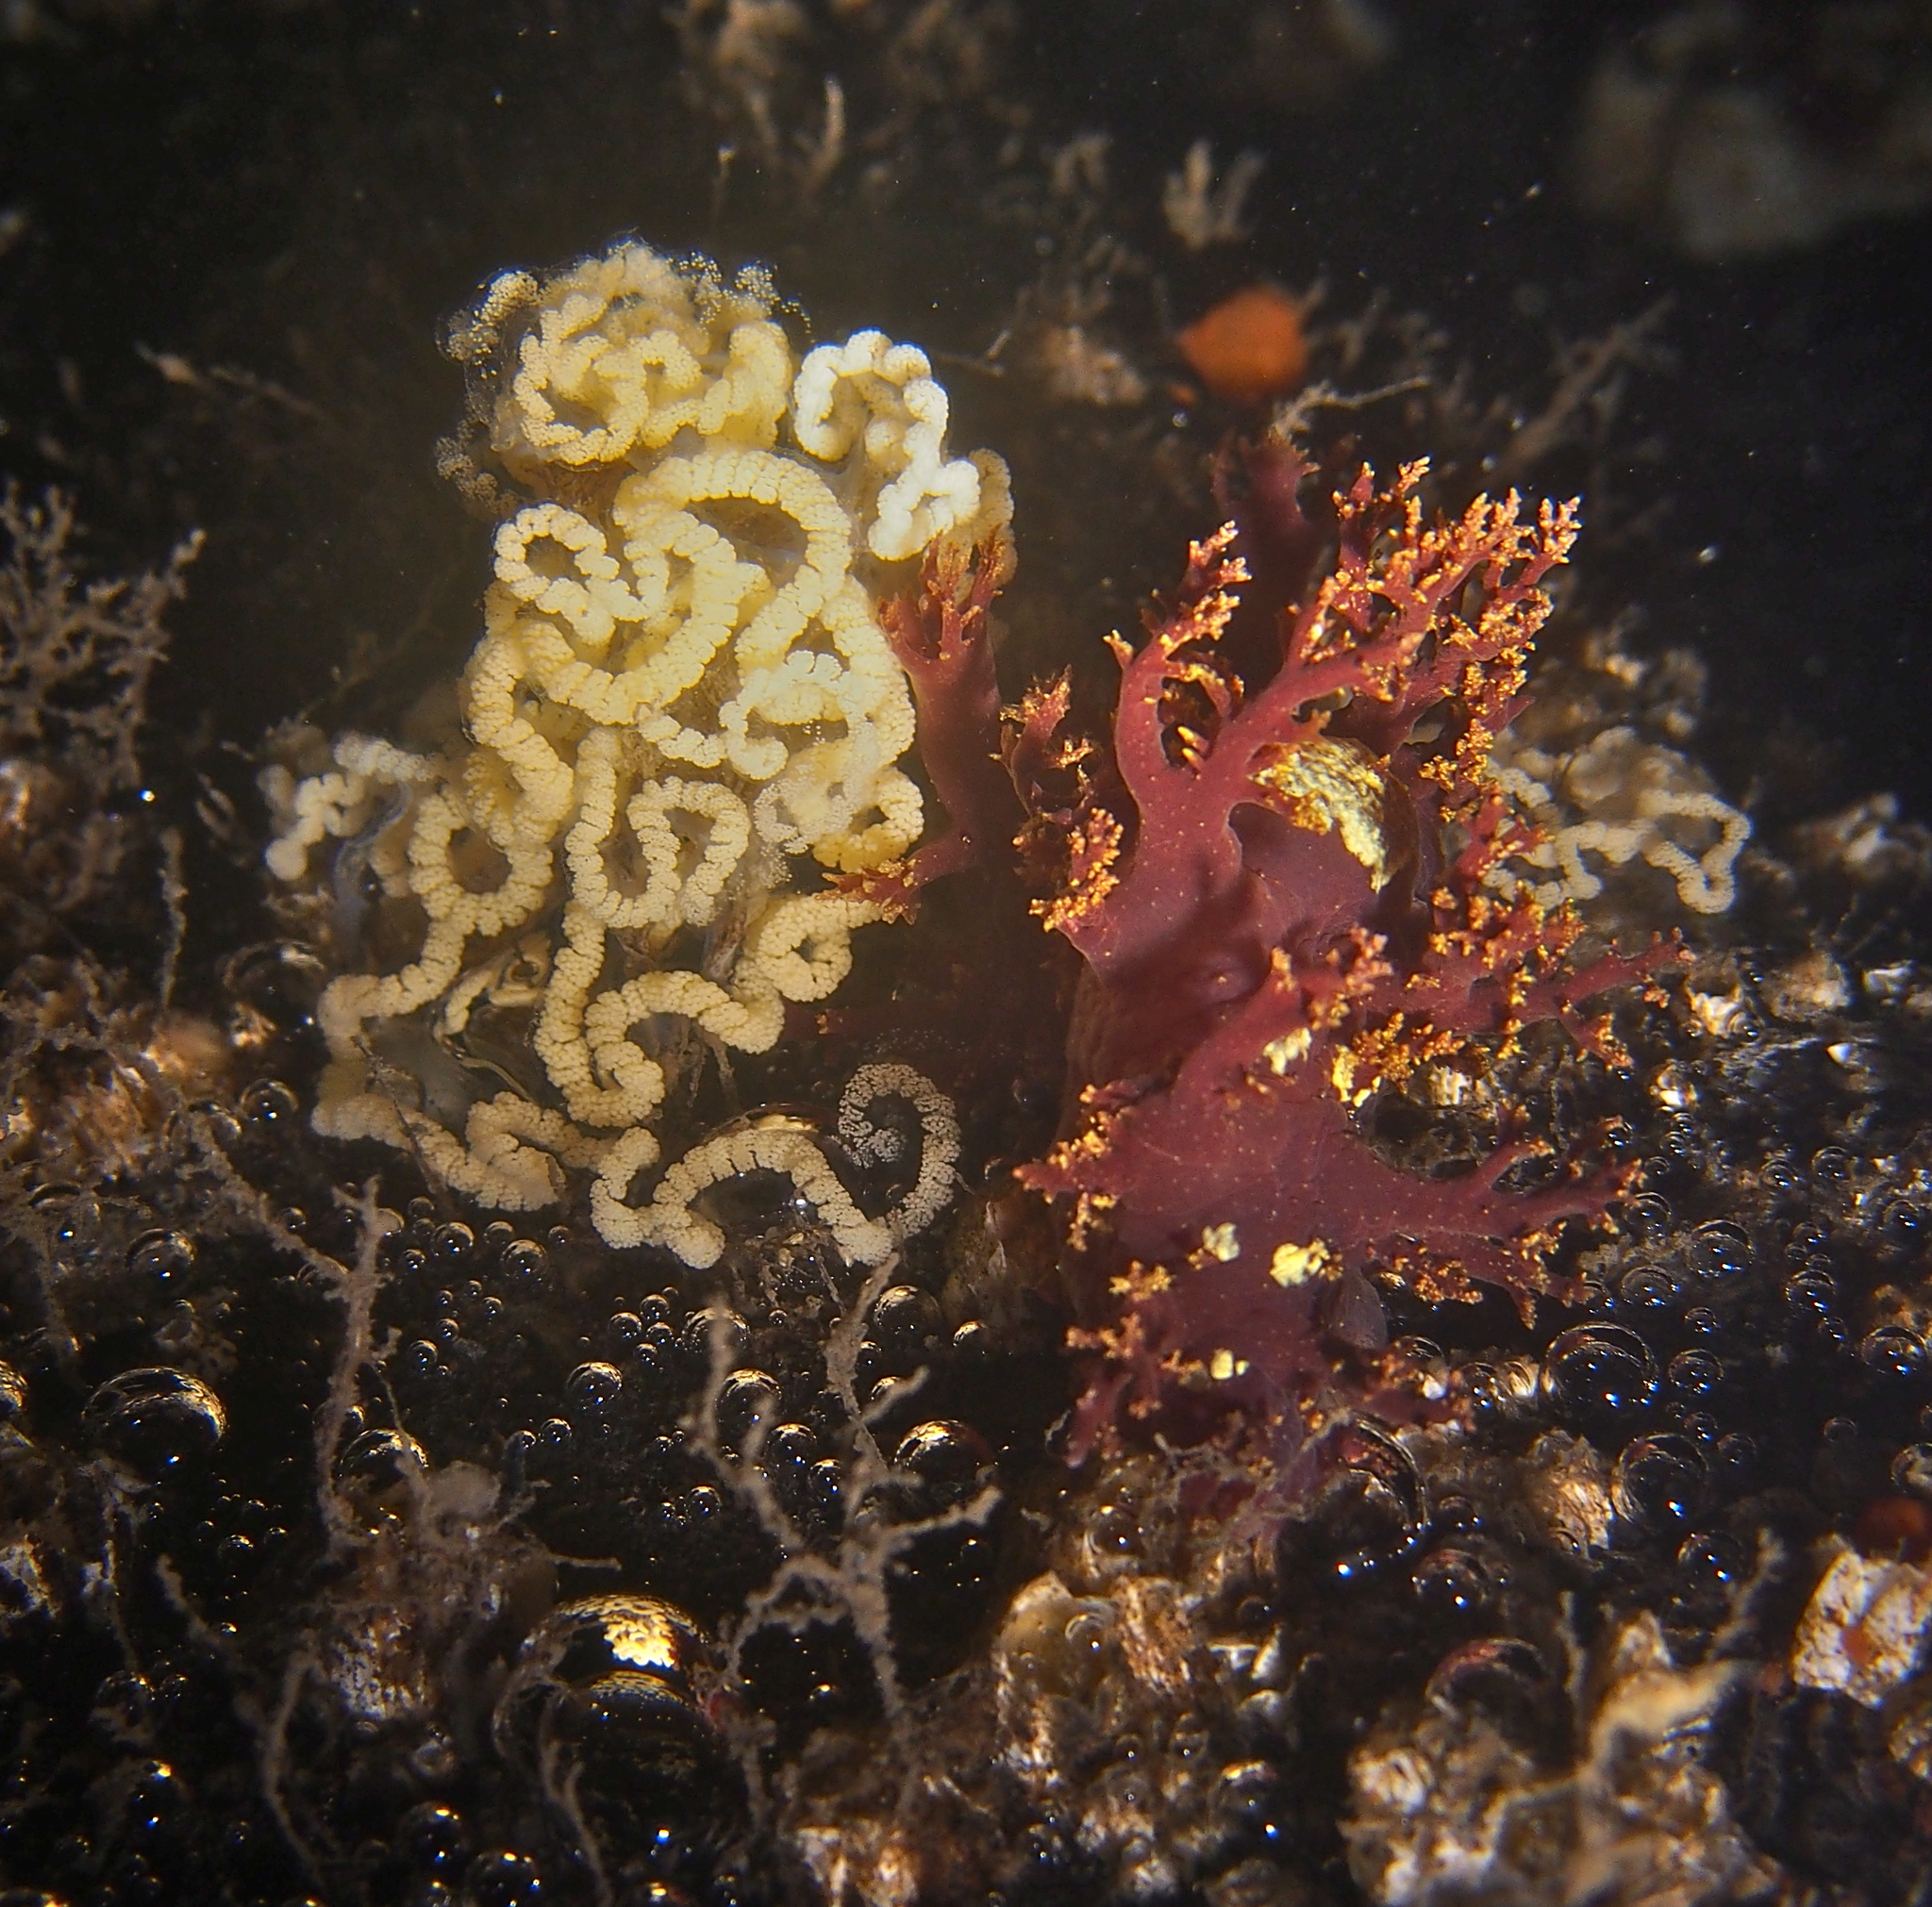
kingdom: Animalia
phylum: Mollusca
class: Gastropoda
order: Nudibranchia
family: Dendronotidae
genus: Dendronotus
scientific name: Dendronotus lacteus
